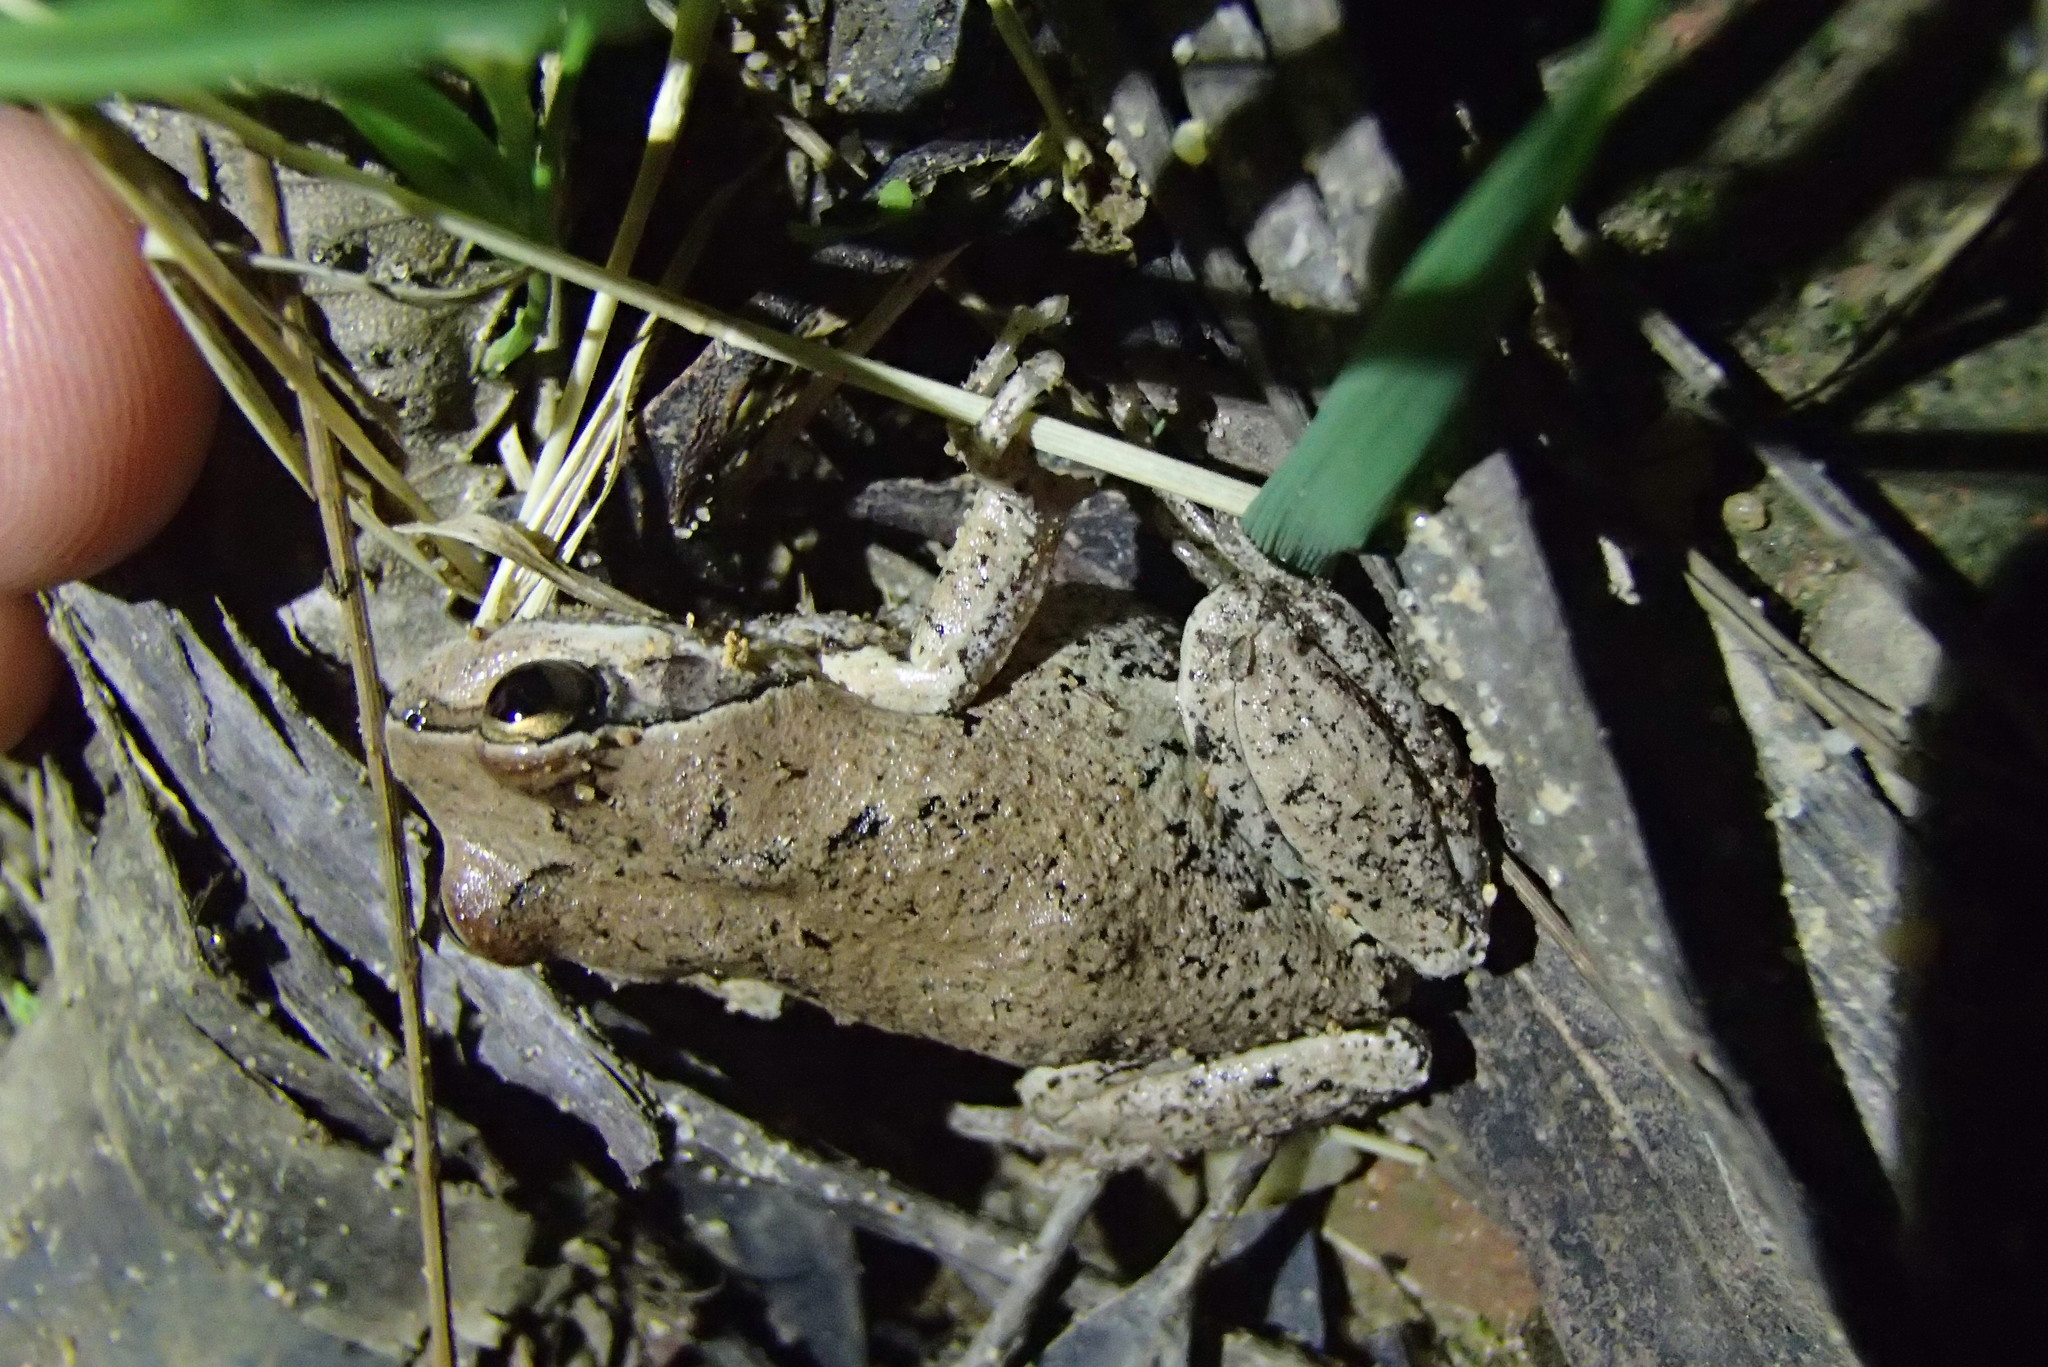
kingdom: Animalia
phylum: Chordata
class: Amphibia
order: Anura
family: Pelodryadidae
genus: Litoria
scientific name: Litoria verreauxii
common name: Alpine tree frog
